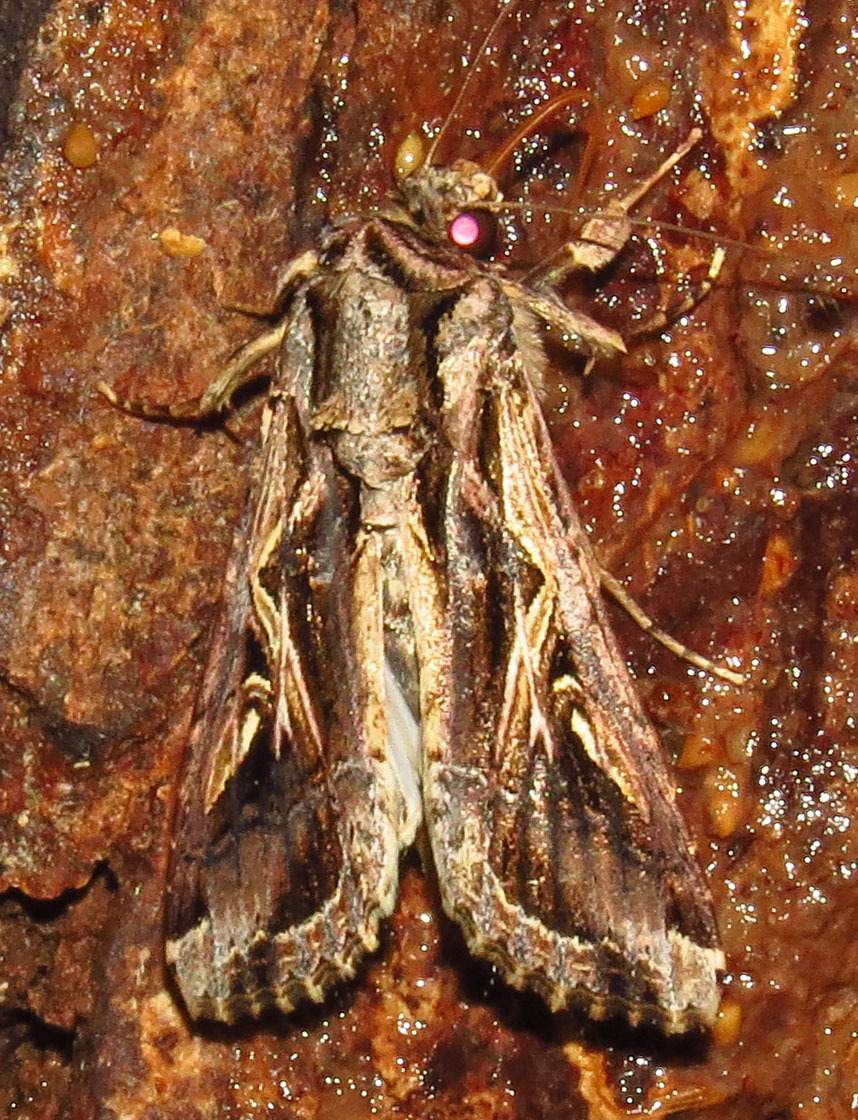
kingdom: Animalia
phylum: Arthropoda
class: Insecta
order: Lepidoptera
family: Noctuidae
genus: Spodoptera
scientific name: Spodoptera dolichos
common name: Sweetpotato armyworm
